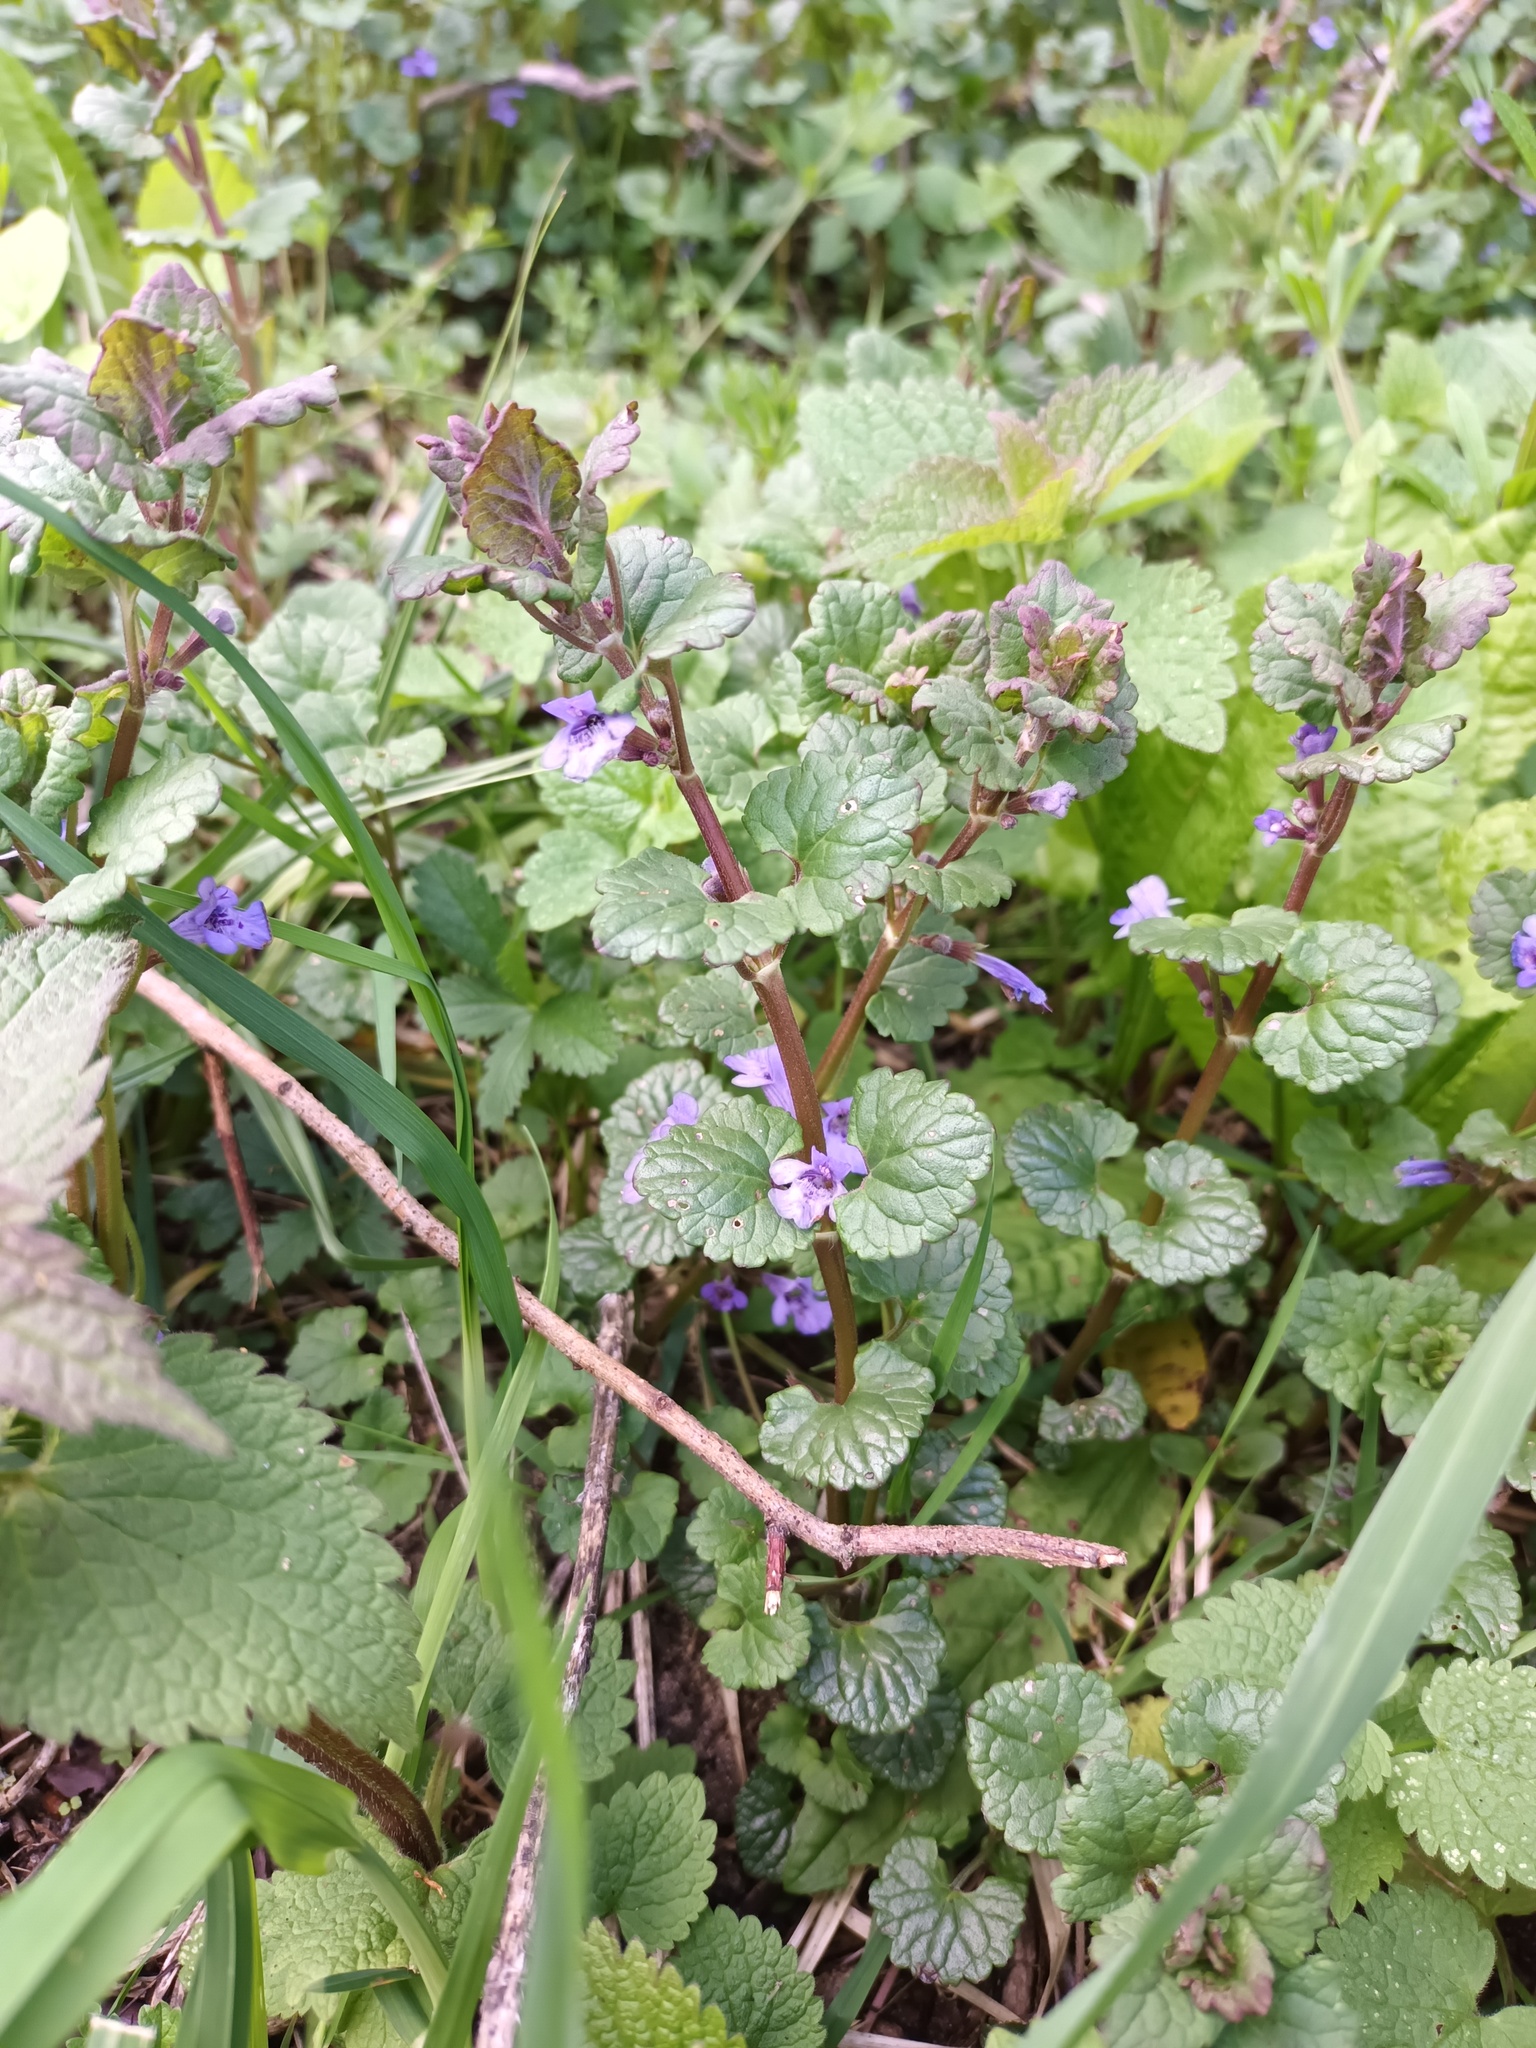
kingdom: Plantae
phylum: Tracheophyta
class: Magnoliopsida
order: Lamiales
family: Lamiaceae
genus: Glechoma
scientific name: Glechoma hederacea
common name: Ground ivy
